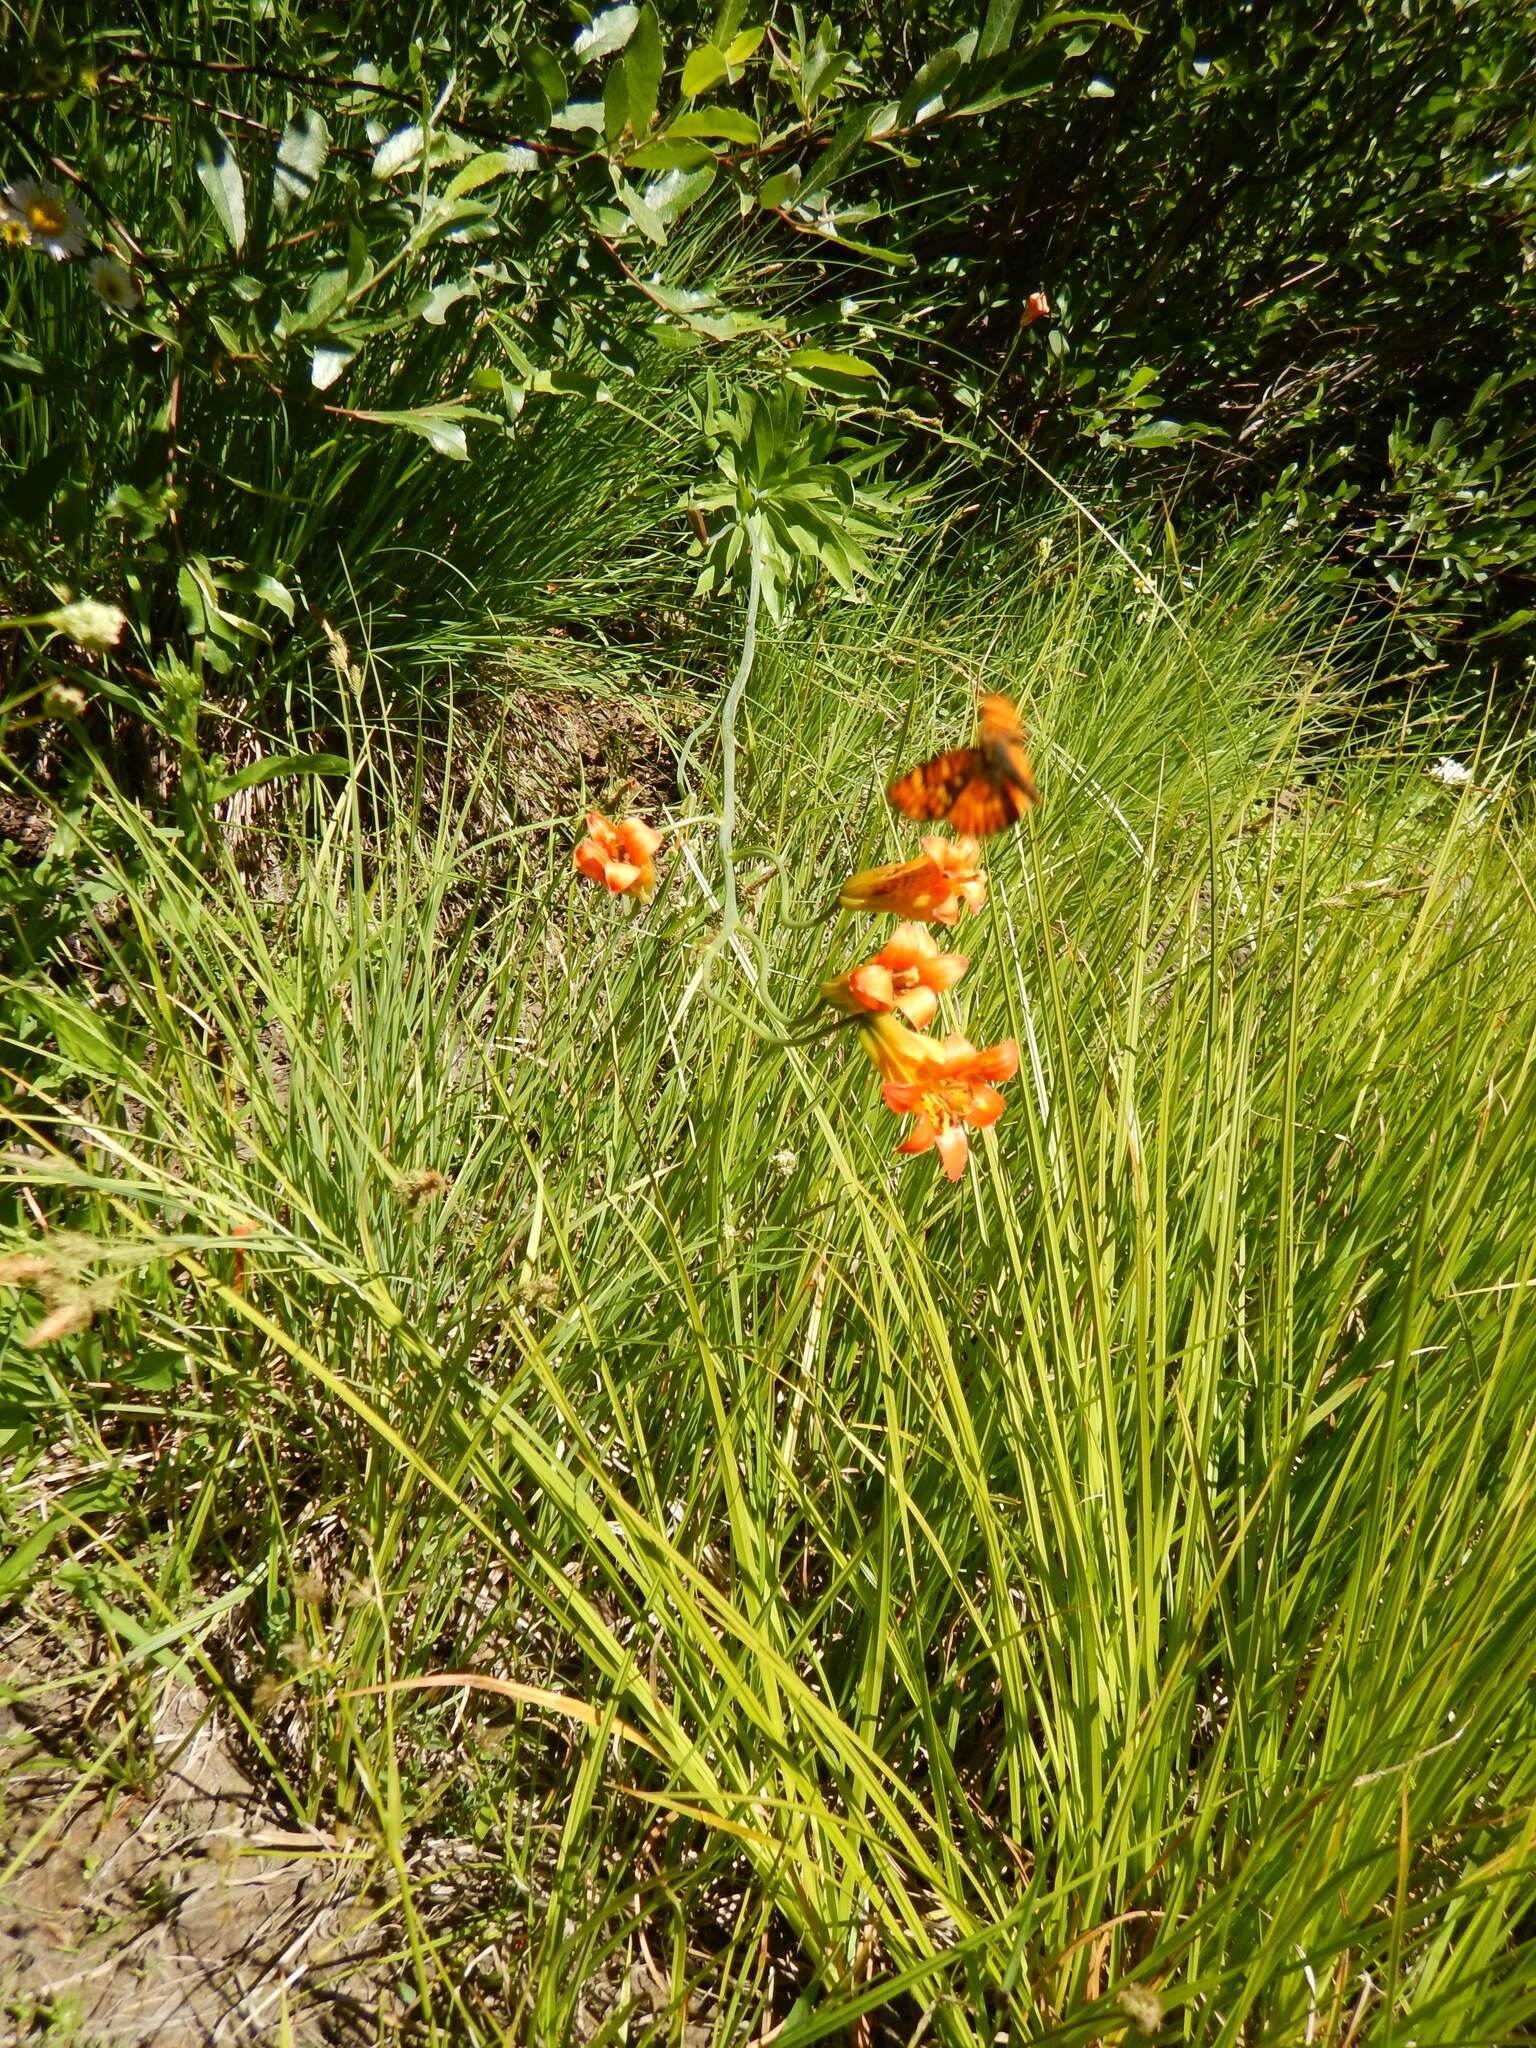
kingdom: Plantae
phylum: Tracheophyta
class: Liliopsida
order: Liliales
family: Liliaceae
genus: Lilium
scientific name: Lilium parvum
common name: Alpine lily
